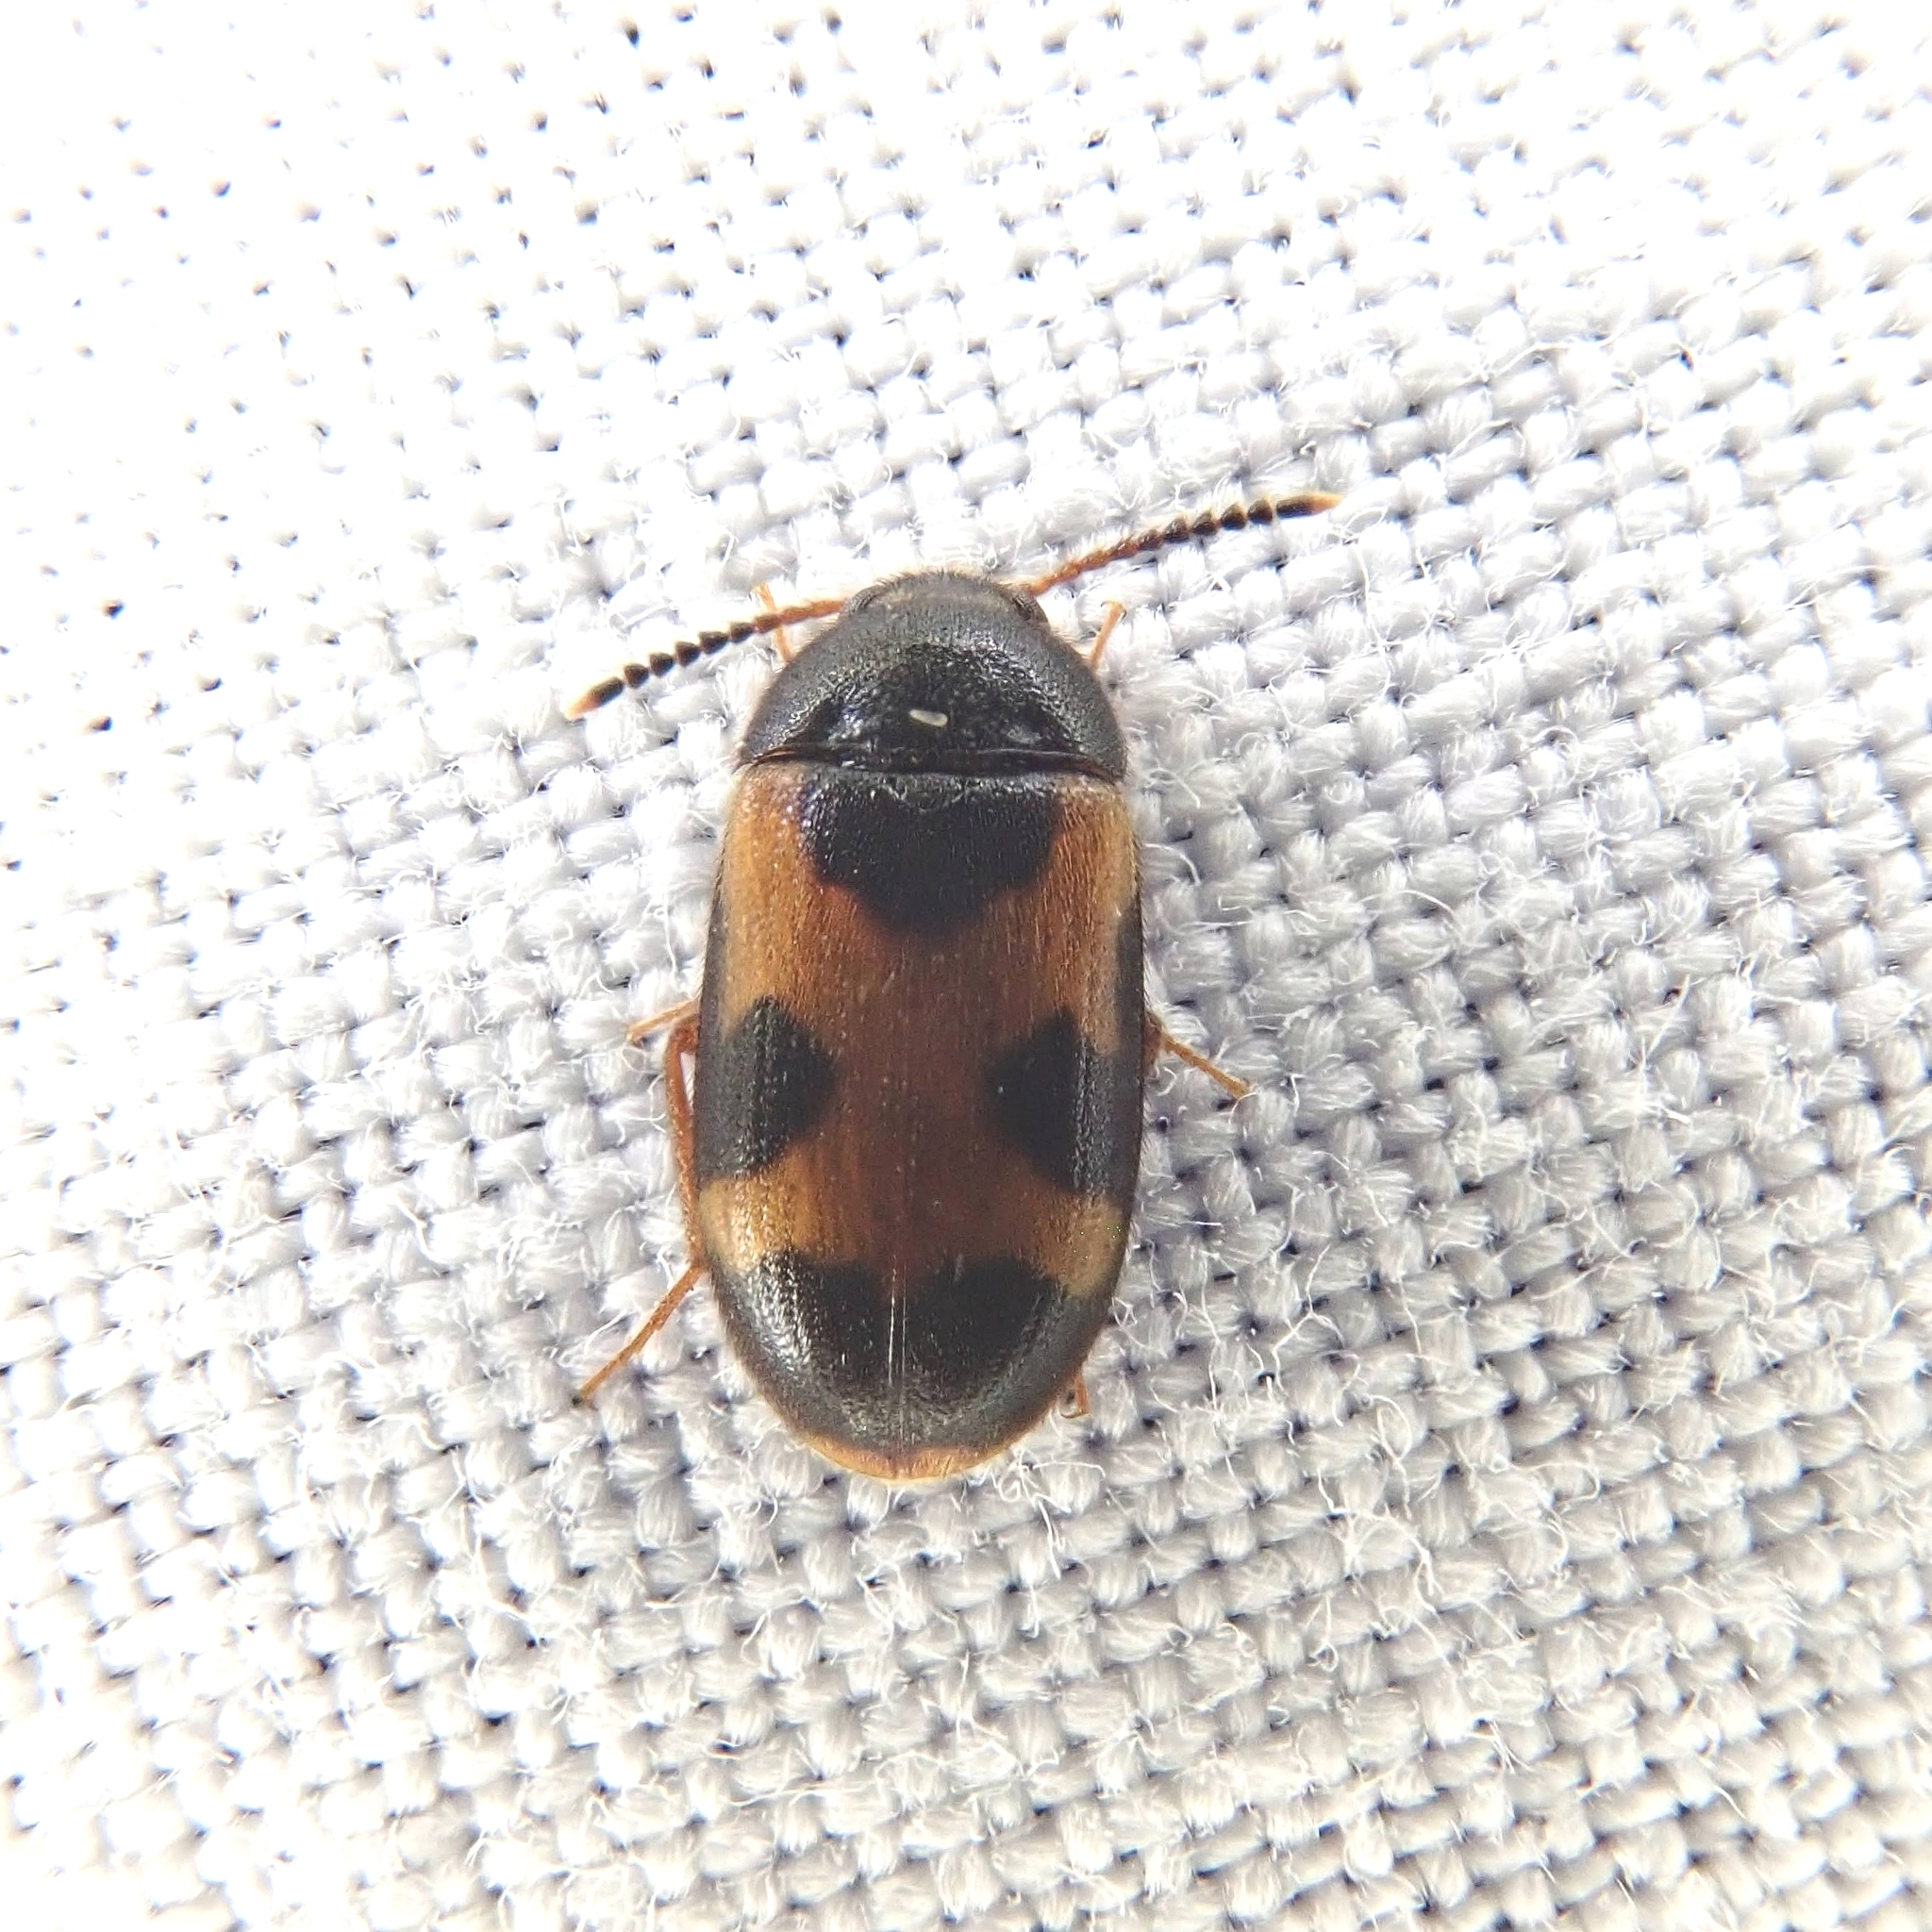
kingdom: Animalia
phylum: Arthropoda
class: Insecta
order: Coleoptera
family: Mycetophagidae
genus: Mycetophagus
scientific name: Mycetophagus punctatus
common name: Hairy fungus beetle
